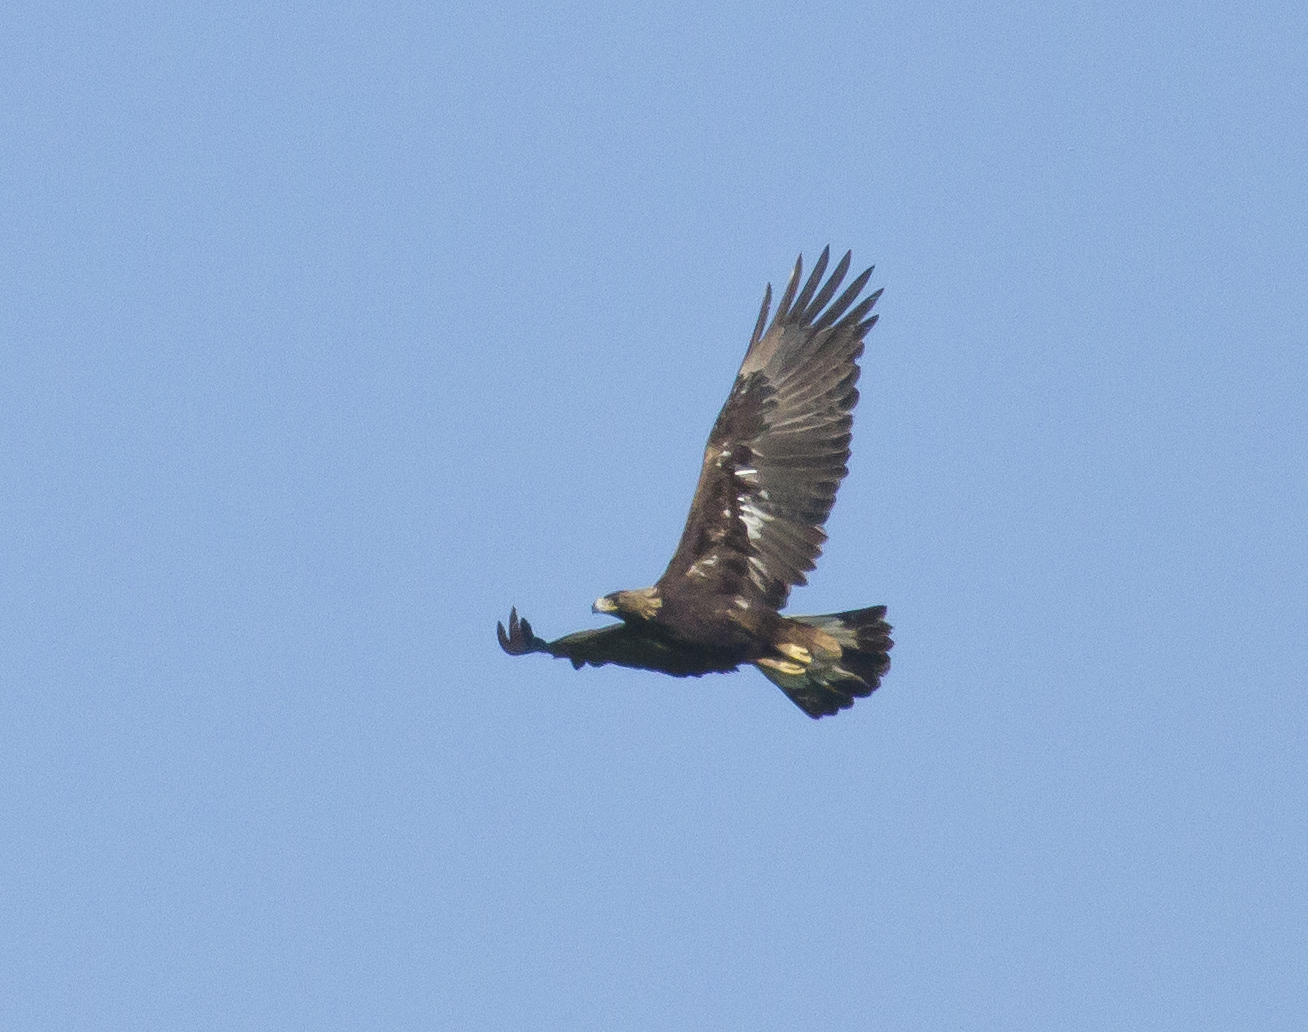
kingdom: Animalia
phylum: Chordata
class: Aves
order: Accipitriformes
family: Accipitridae
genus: Aquila
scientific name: Aquila chrysaetos
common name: Golden eagle
